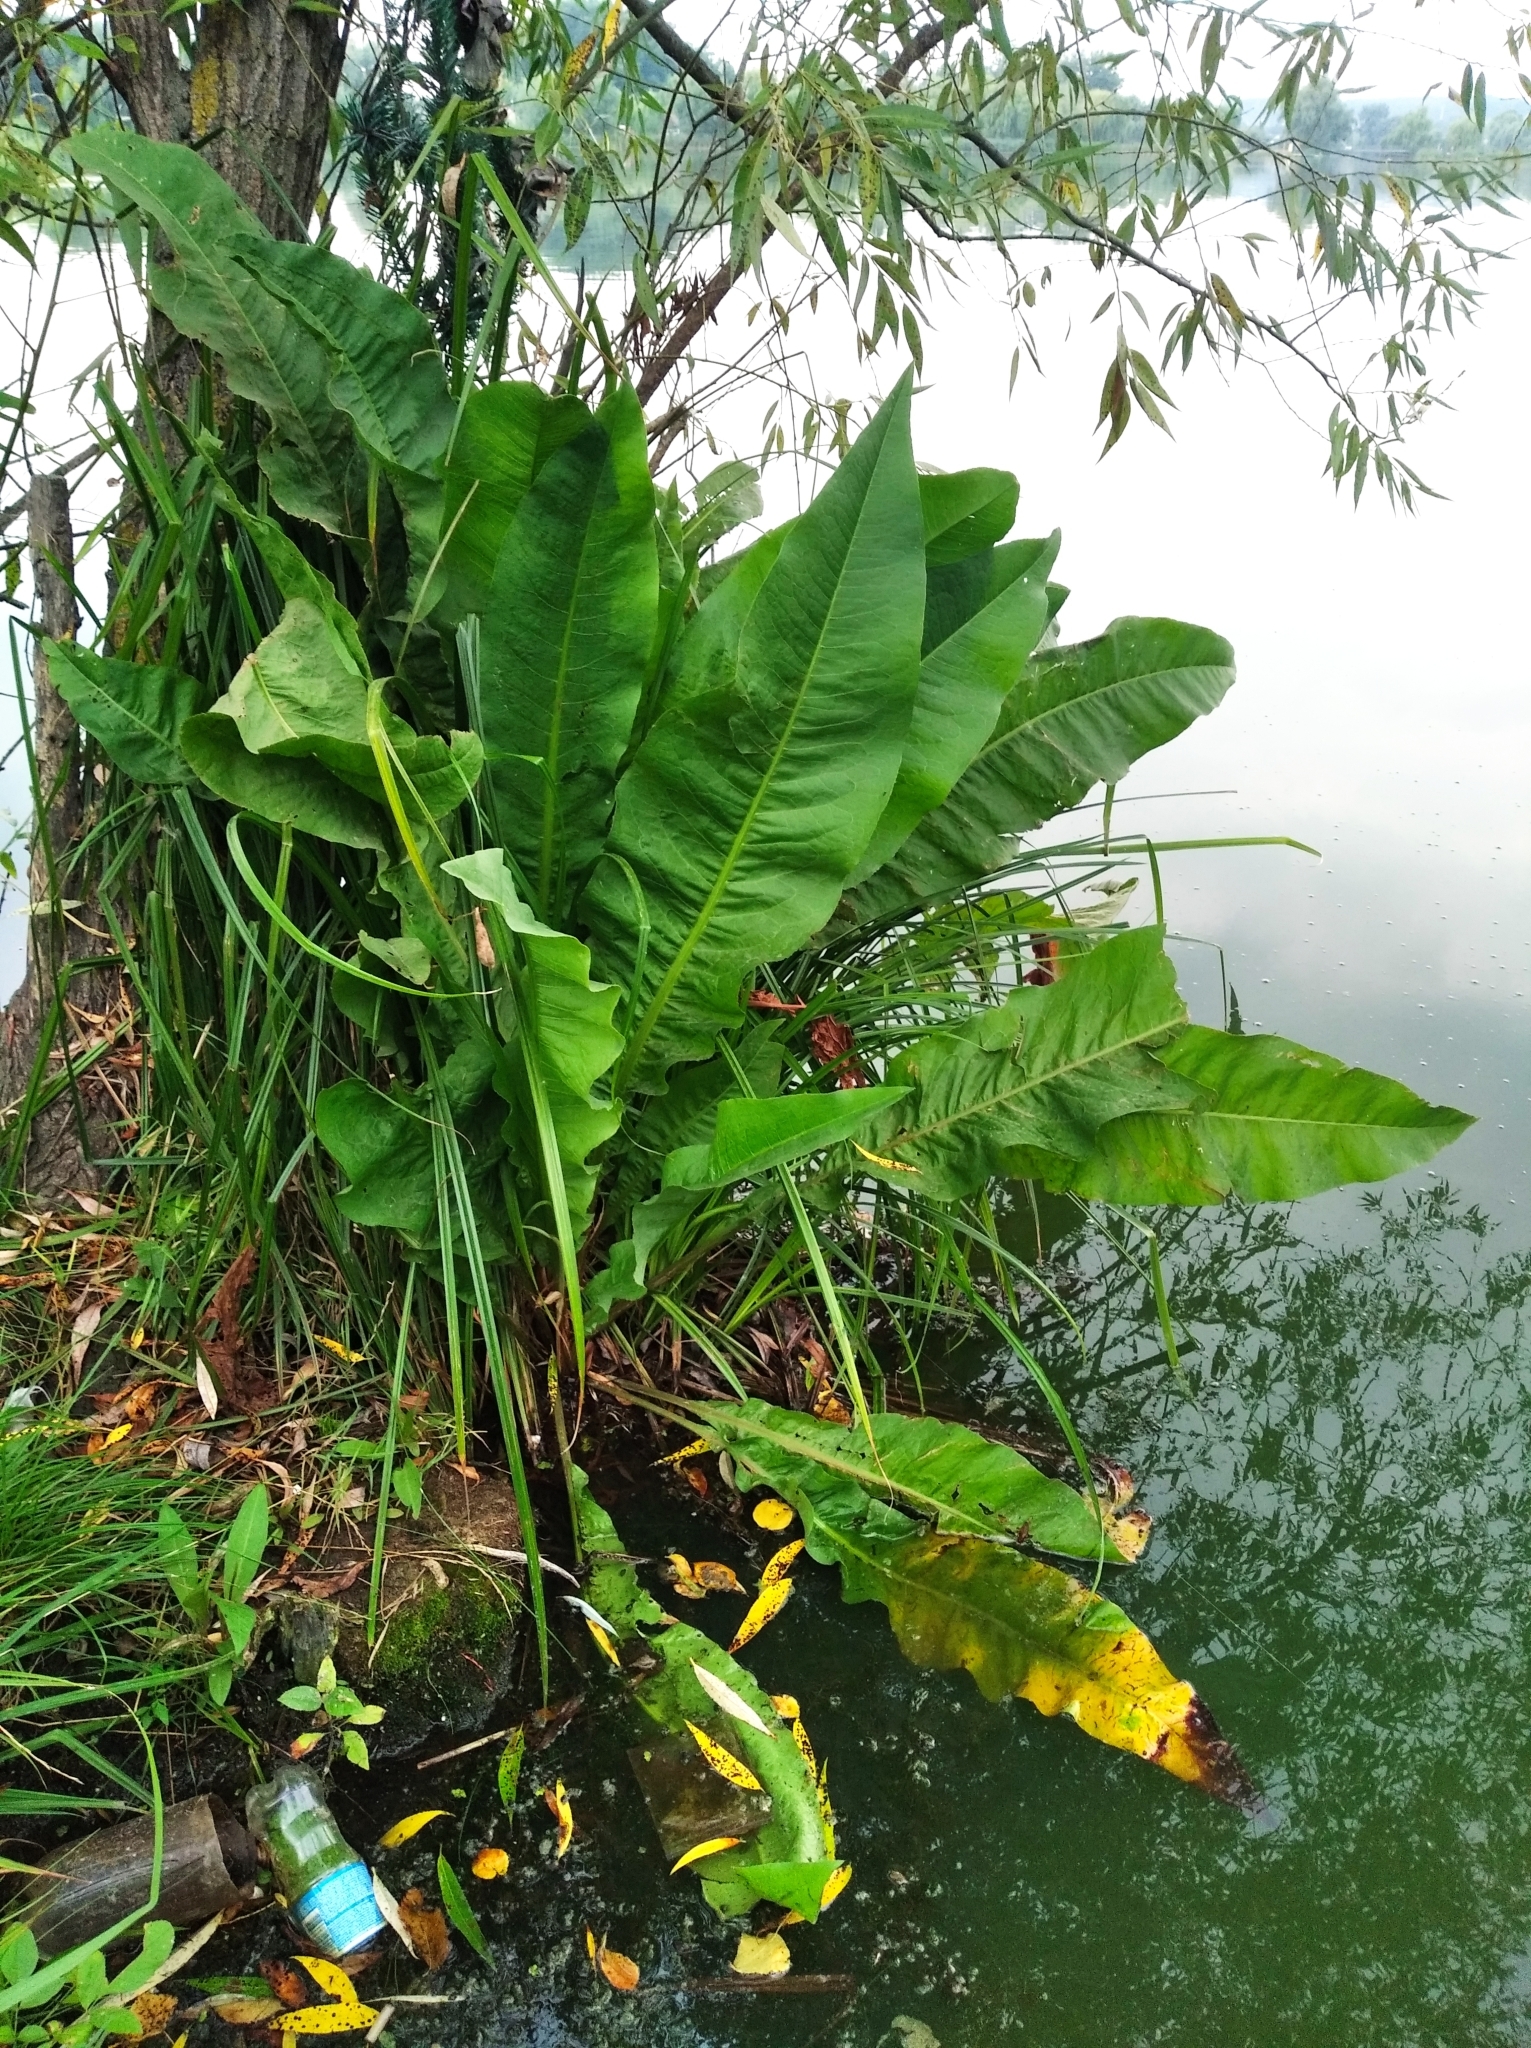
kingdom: Plantae
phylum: Tracheophyta
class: Magnoliopsida
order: Caryophyllales
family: Polygonaceae
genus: Rumex
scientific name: Rumex hydrolapathum
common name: Water dock
